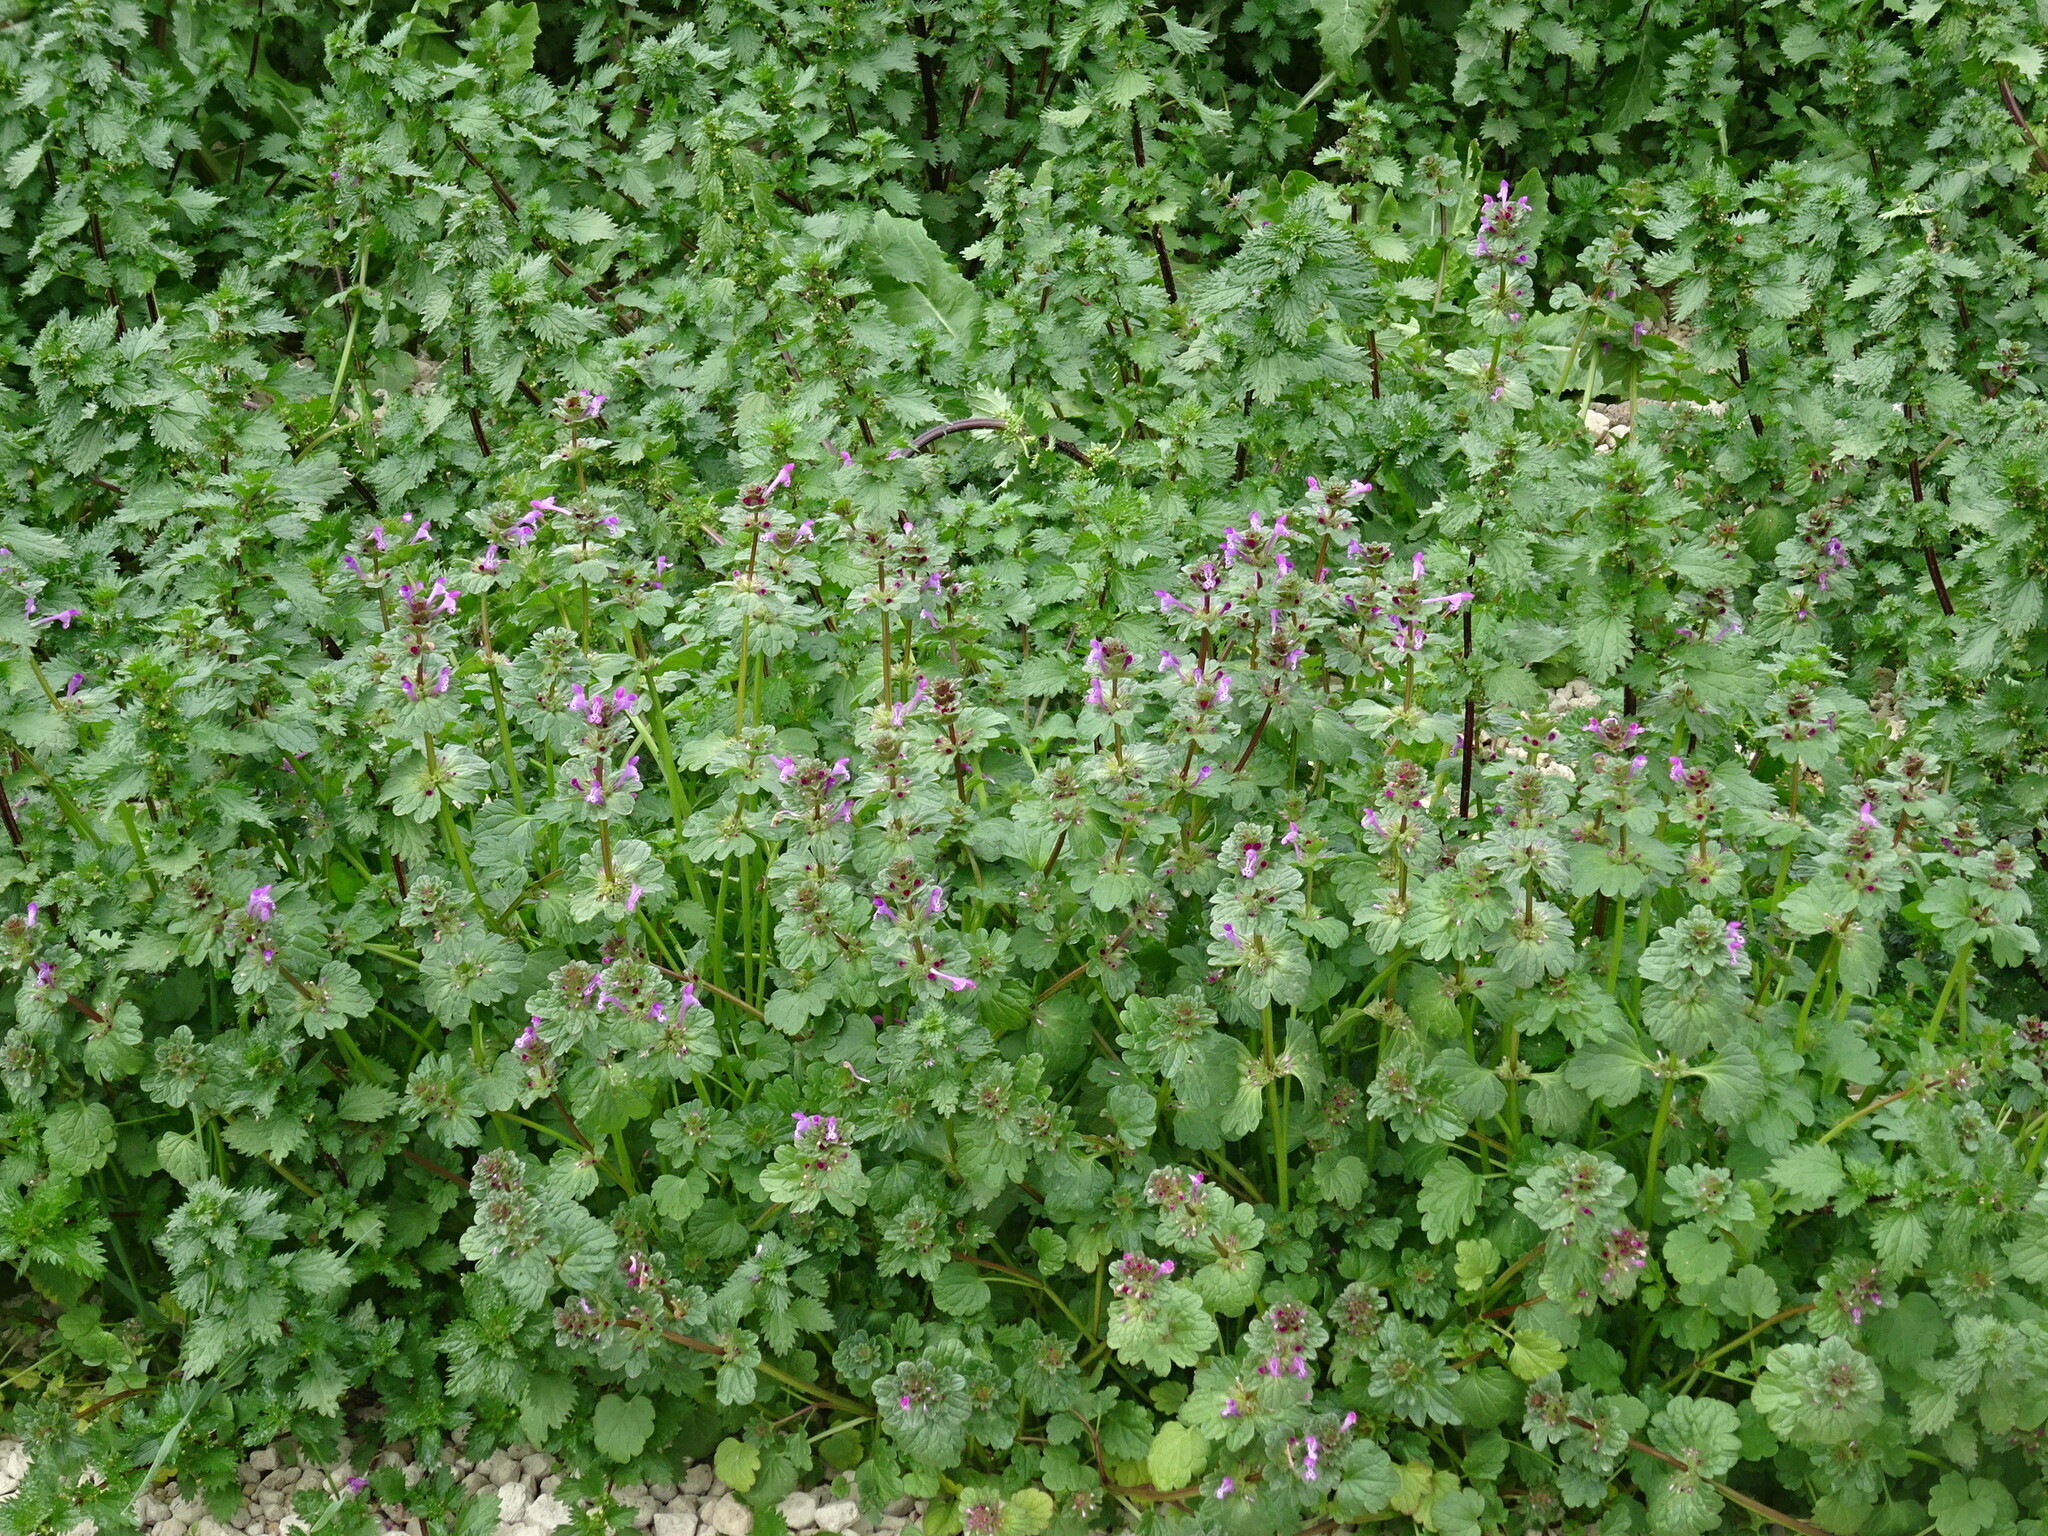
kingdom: Plantae
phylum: Tracheophyta
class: Magnoliopsida
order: Lamiales
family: Lamiaceae
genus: Lamium
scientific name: Lamium amplexicaule
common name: Henbit dead-nettle
